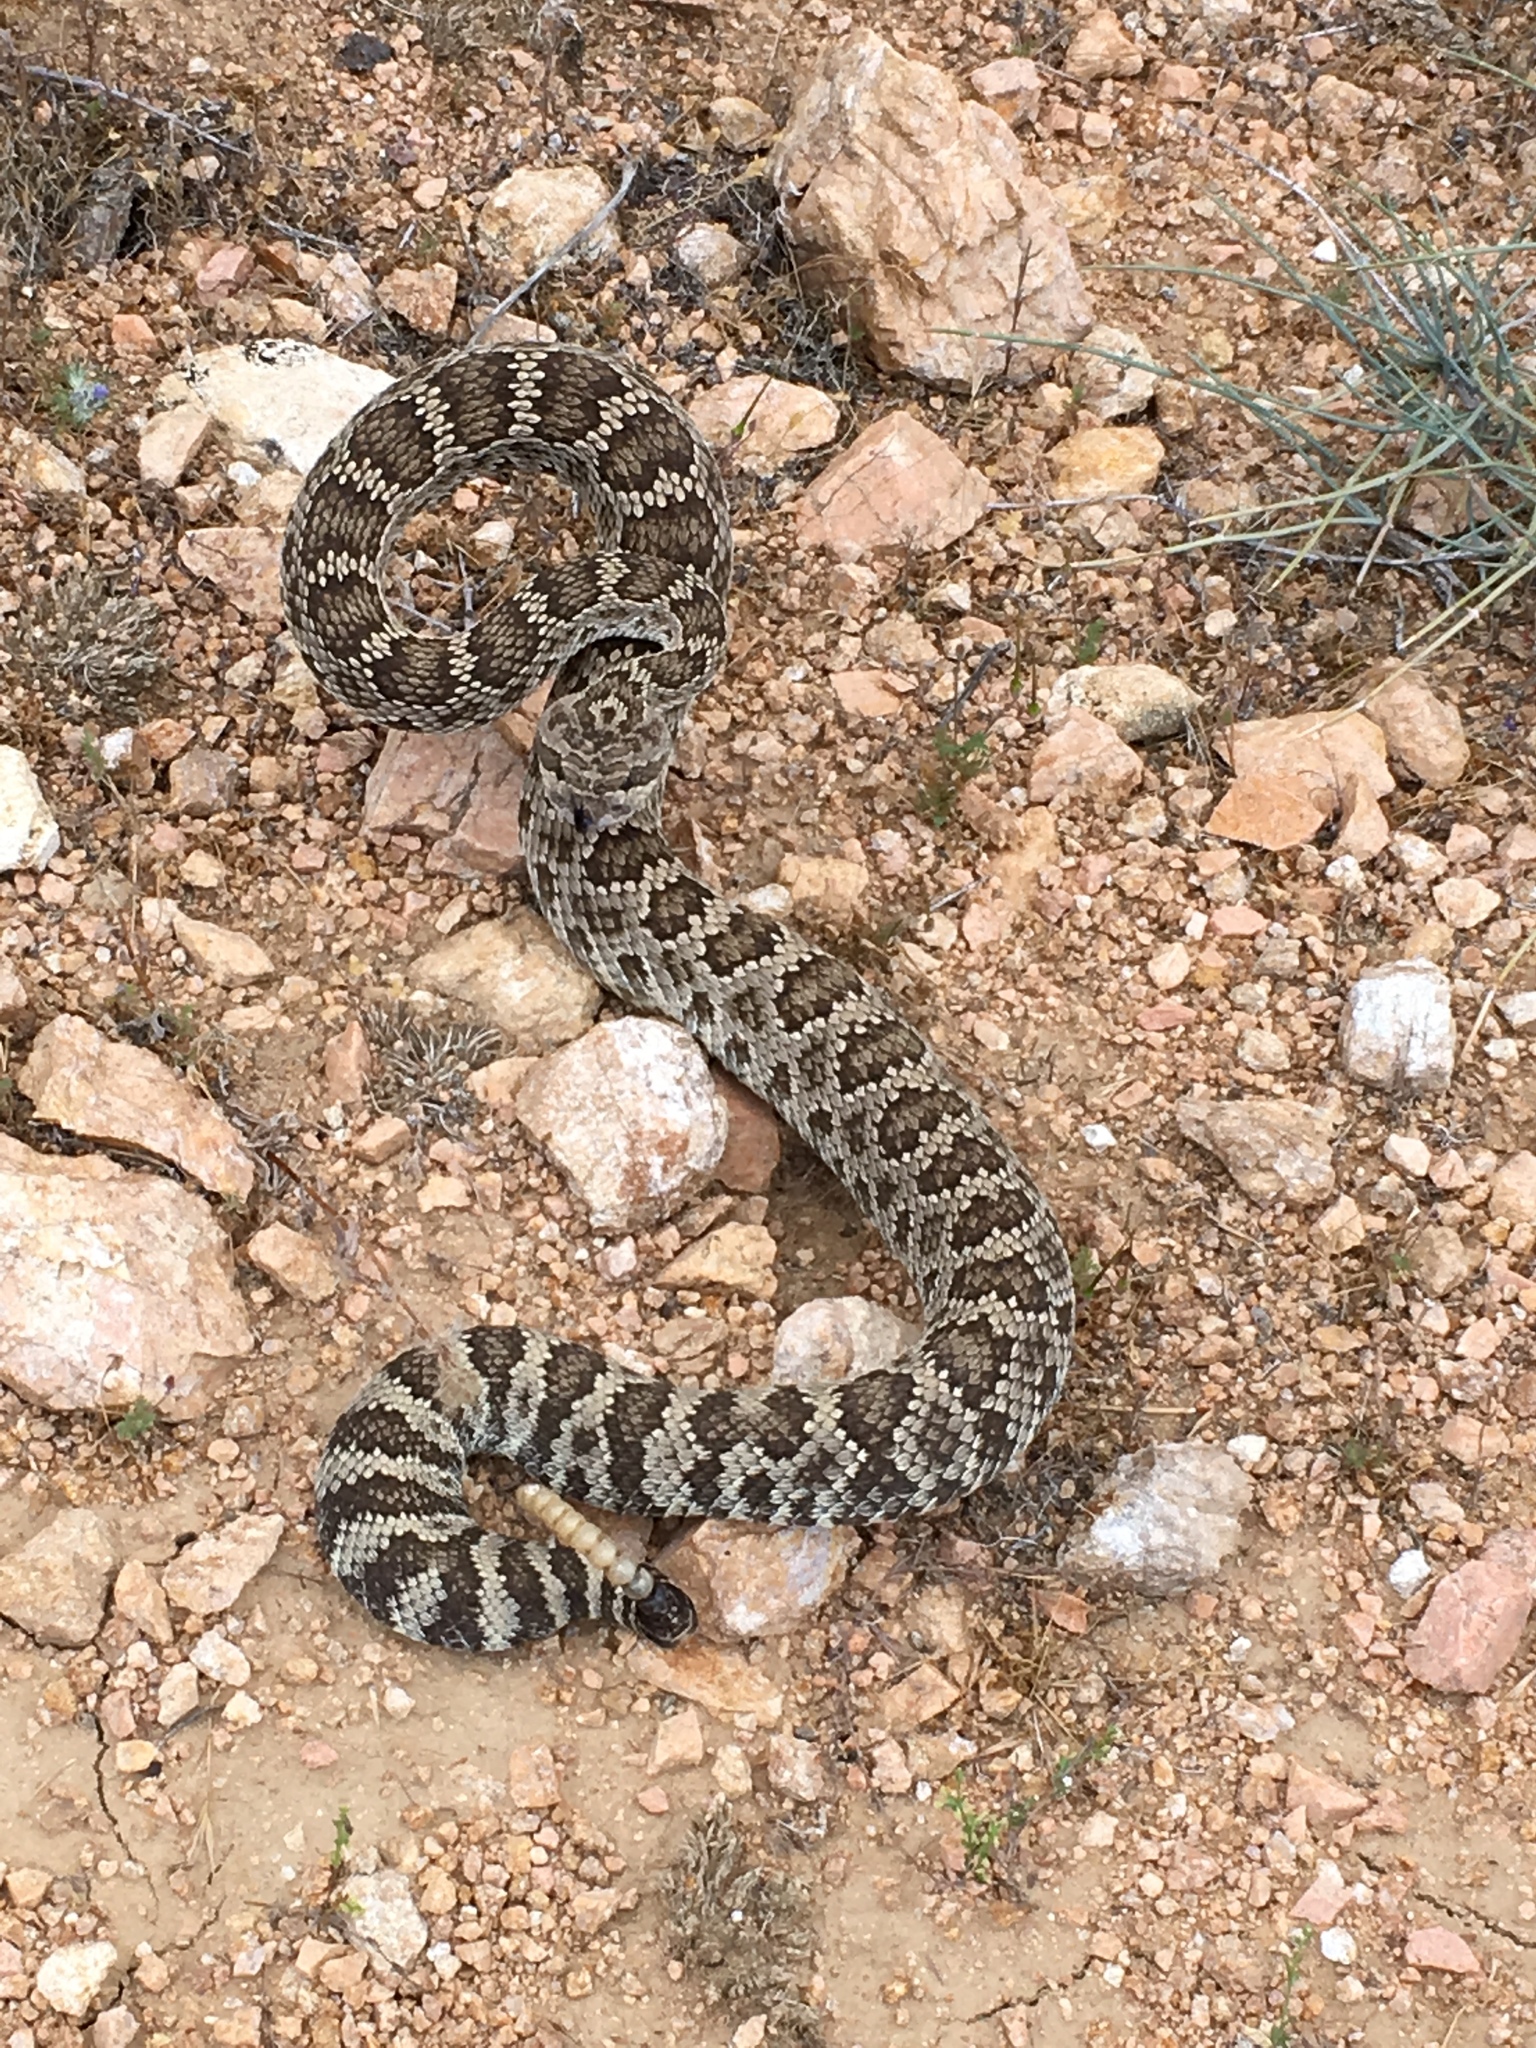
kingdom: Animalia
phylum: Chordata
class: Squamata
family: Viperidae
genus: Crotalus
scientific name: Crotalus oreganus
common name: Abyssus
